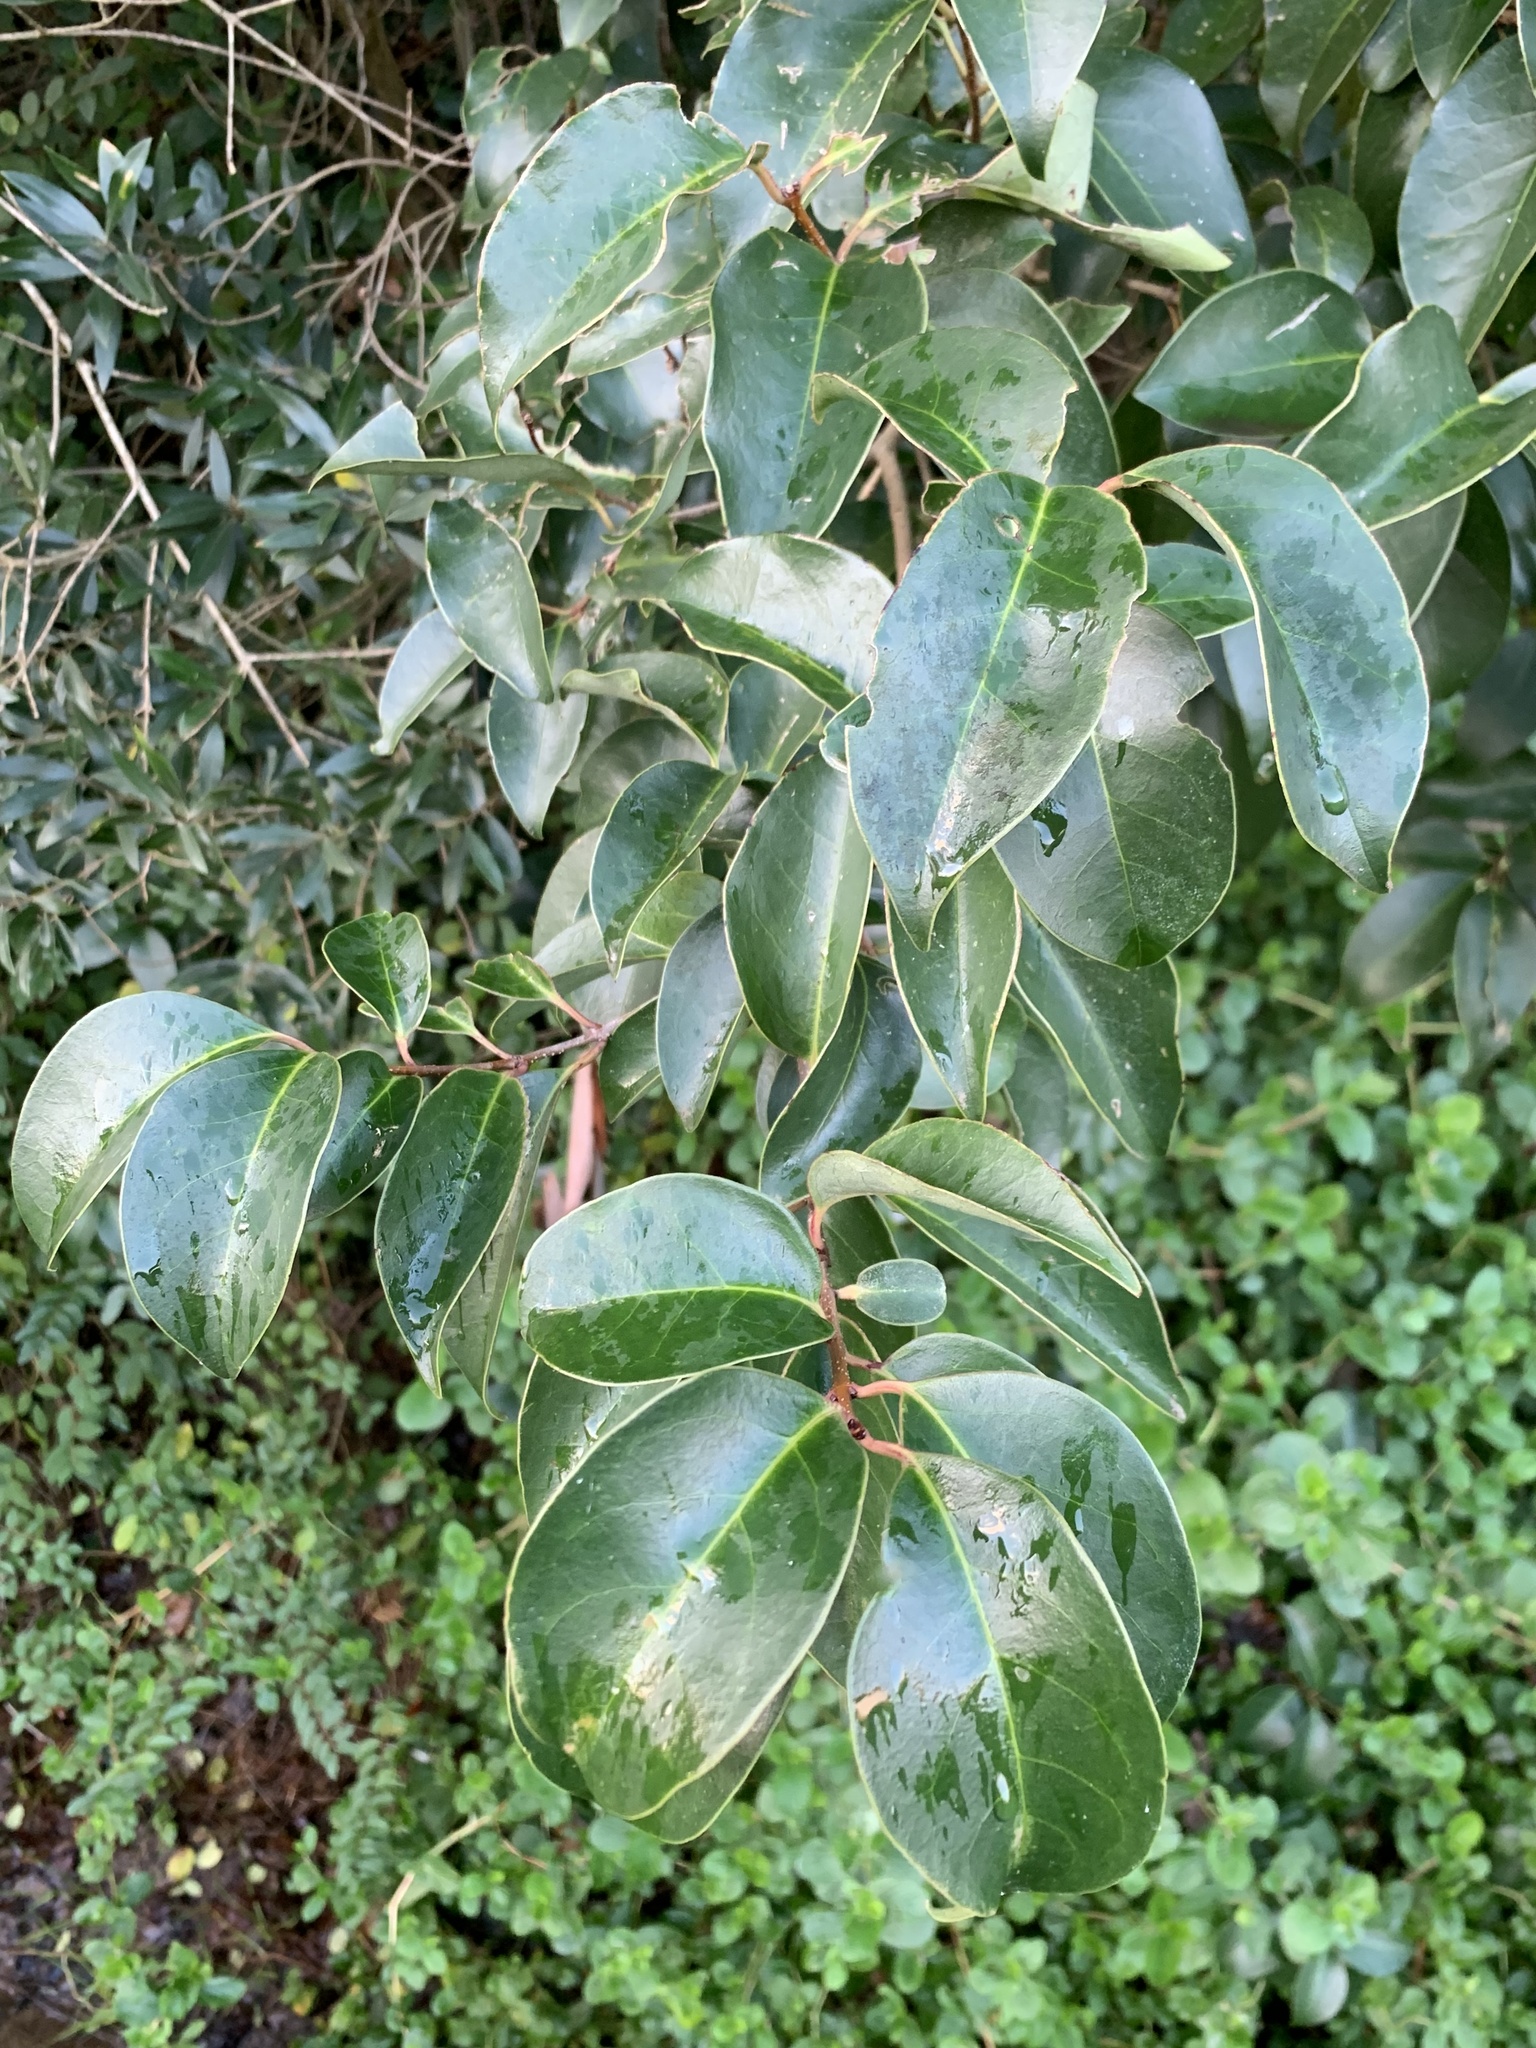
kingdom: Plantae
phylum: Tracheophyta
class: Magnoliopsida
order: Lamiales
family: Oleaceae
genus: Ligustrum
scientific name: Ligustrum lucidum
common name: Glossy privet
